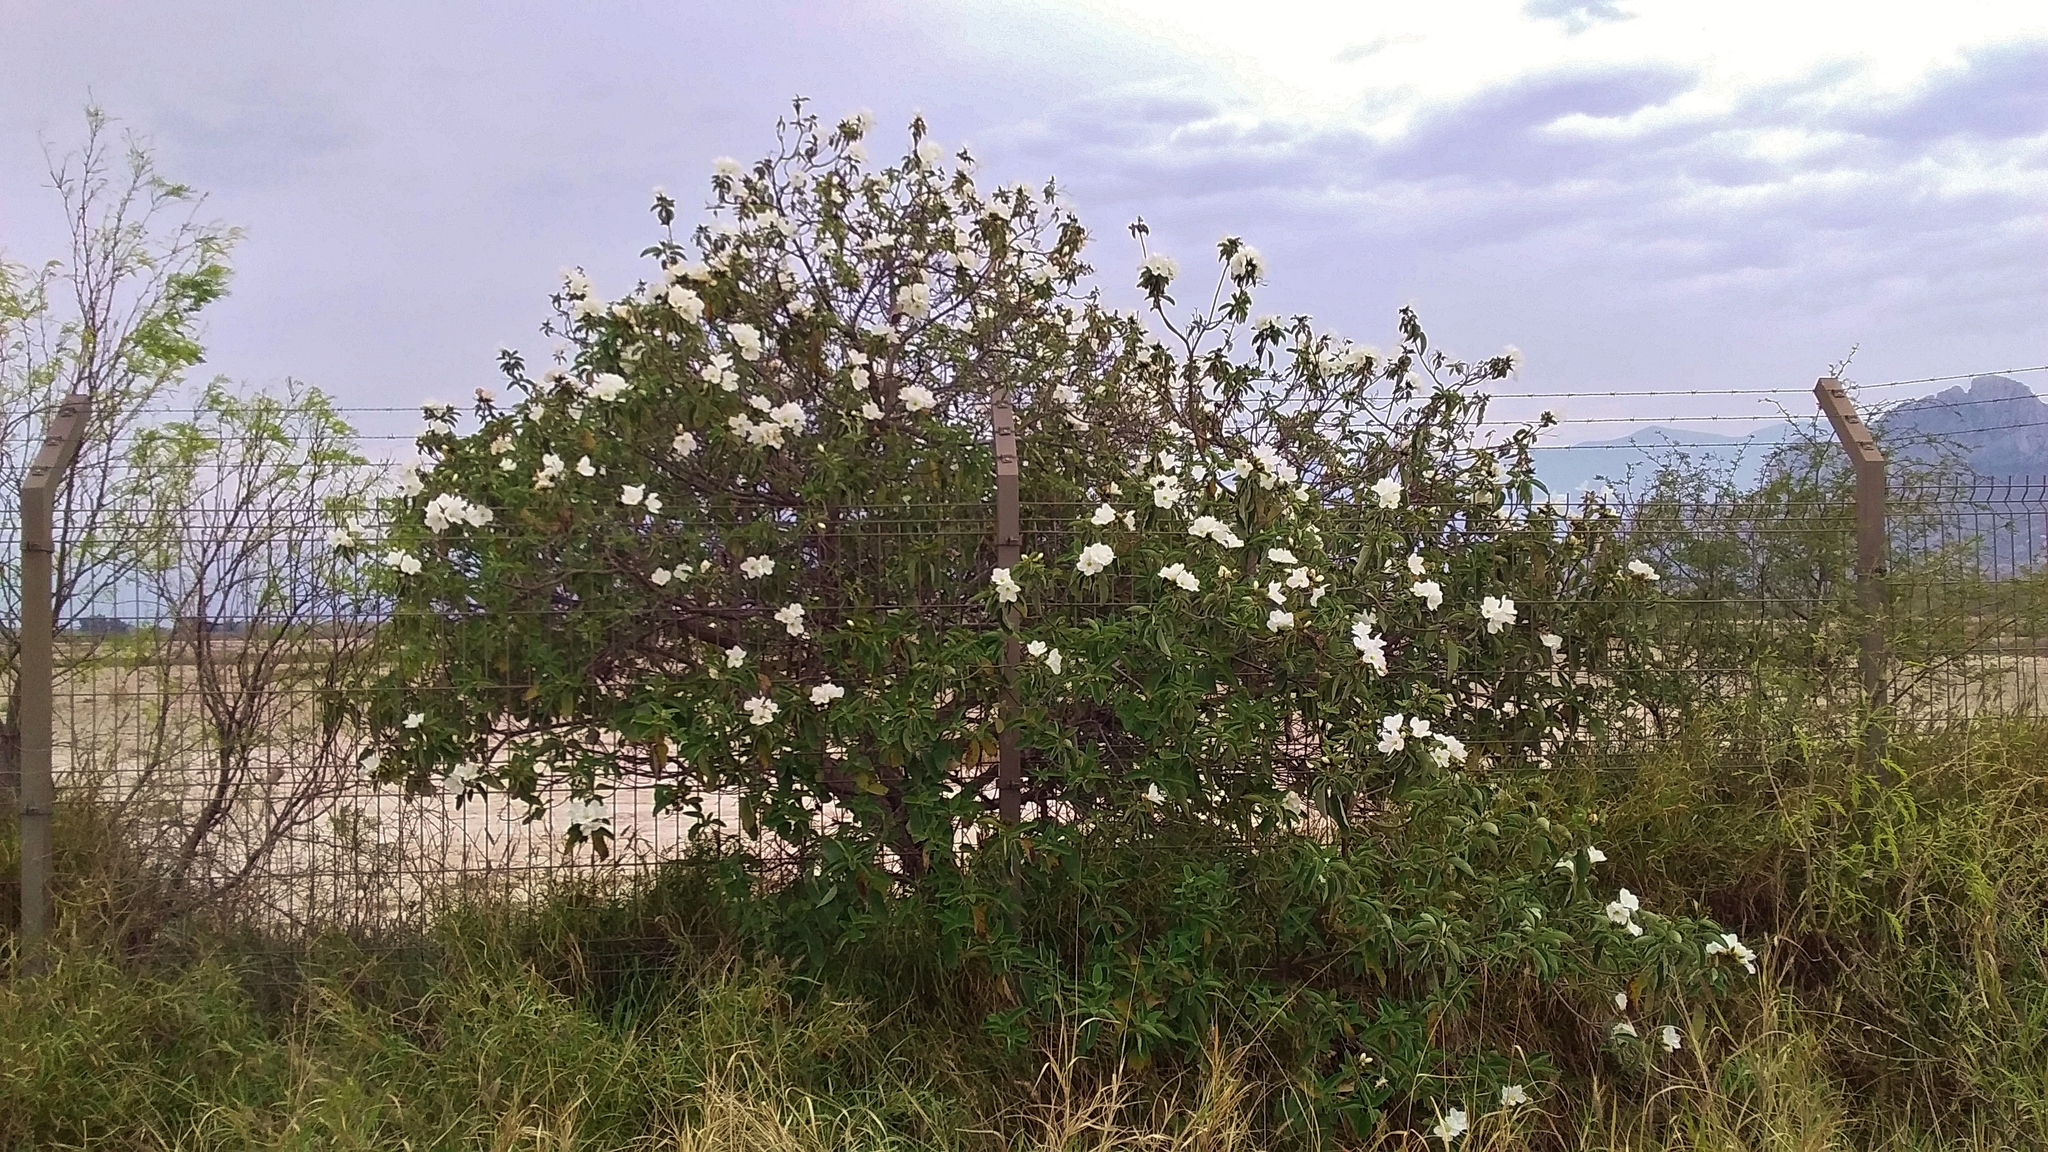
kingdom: Plantae
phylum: Tracheophyta
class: Magnoliopsida
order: Boraginales
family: Cordiaceae
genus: Cordia
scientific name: Cordia boissieri
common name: Mexican-olive
